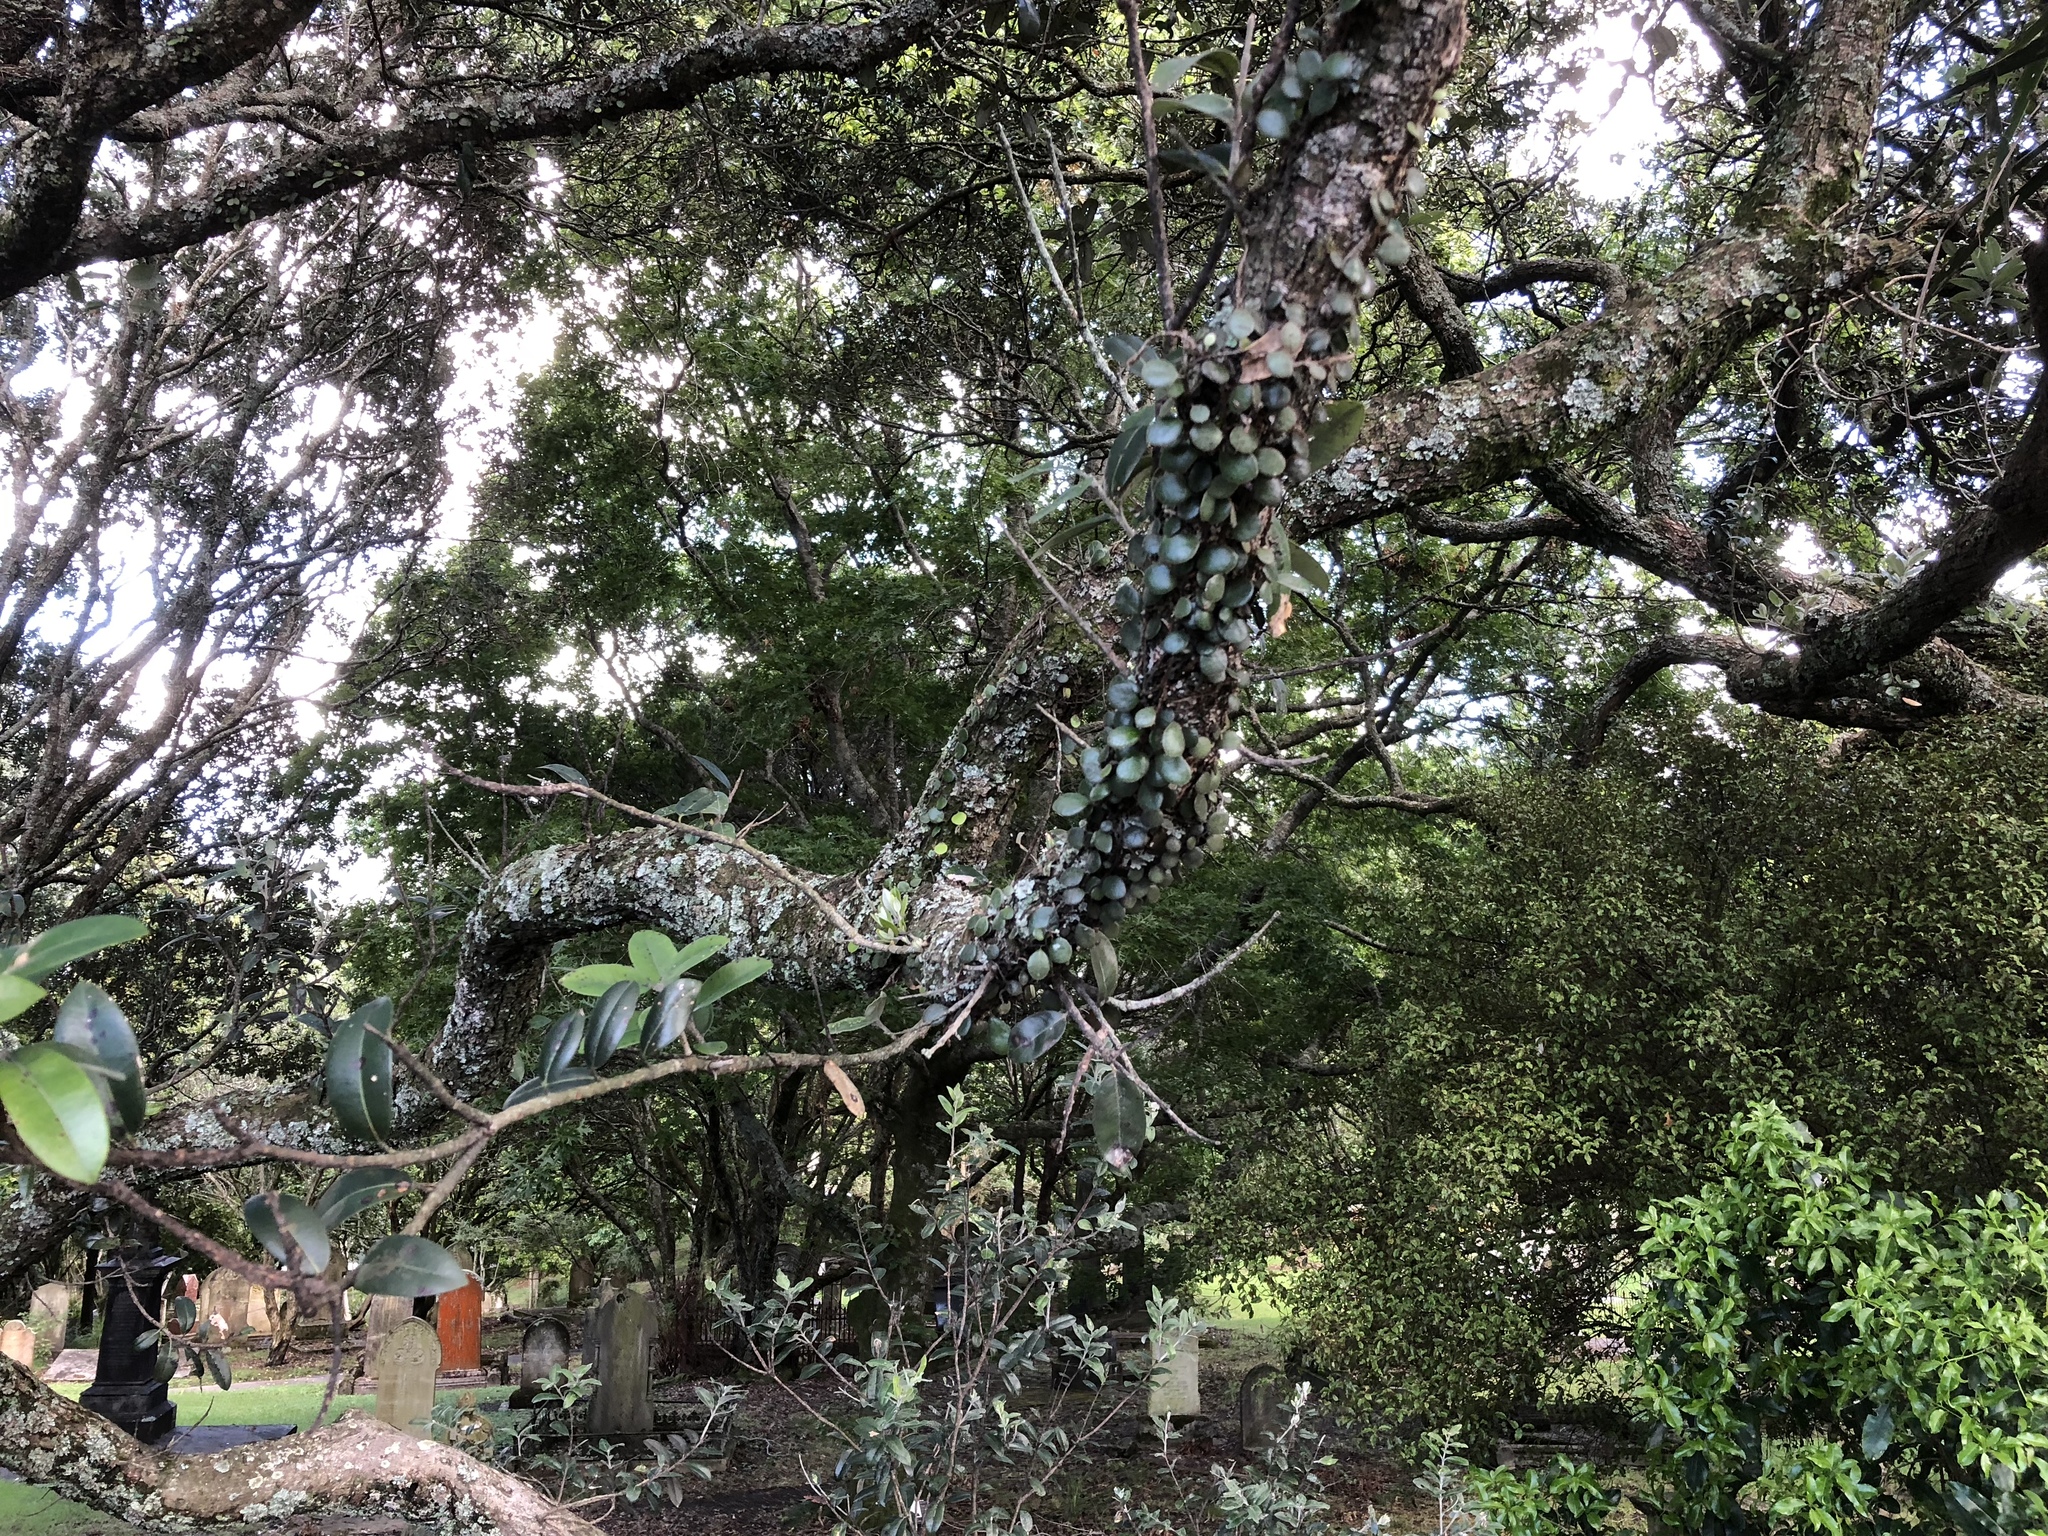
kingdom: Plantae
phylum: Tracheophyta
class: Polypodiopsida
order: Polypodiales
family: Polypodiaceae
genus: Pyrrosia
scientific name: Pyrrosia eleagnifolia
